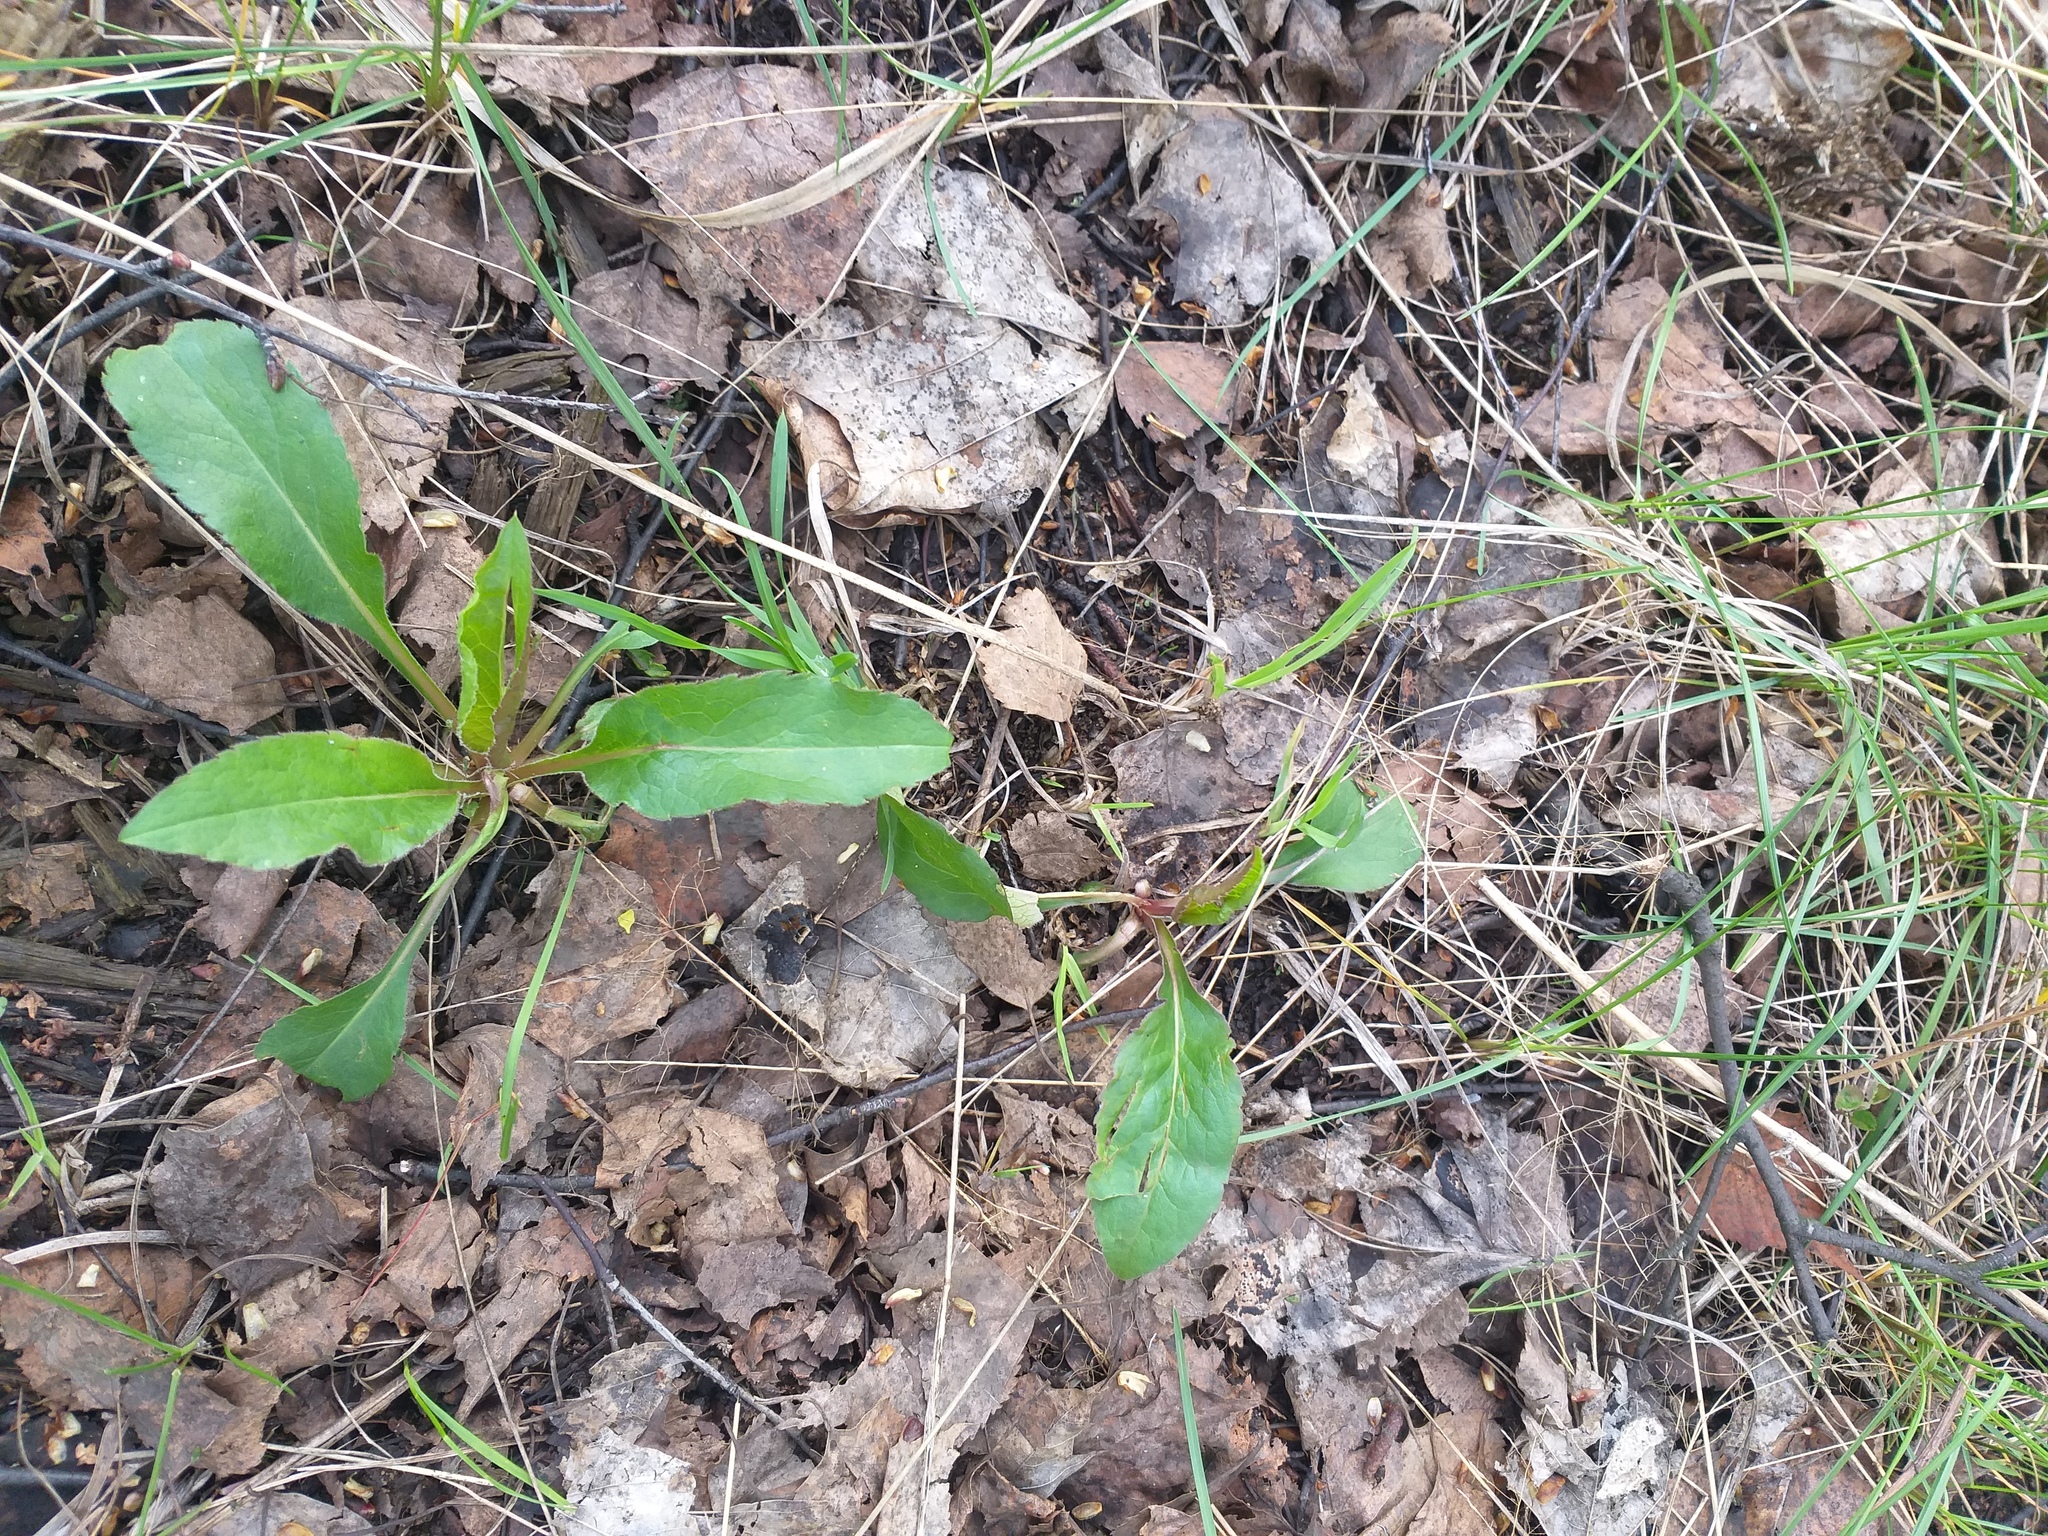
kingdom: Plantae
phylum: Tracheophyta
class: Magnoliopsida
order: Asterales
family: Asteraceae
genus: Solidago
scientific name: Solidago virgaurea
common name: Goldenrod
